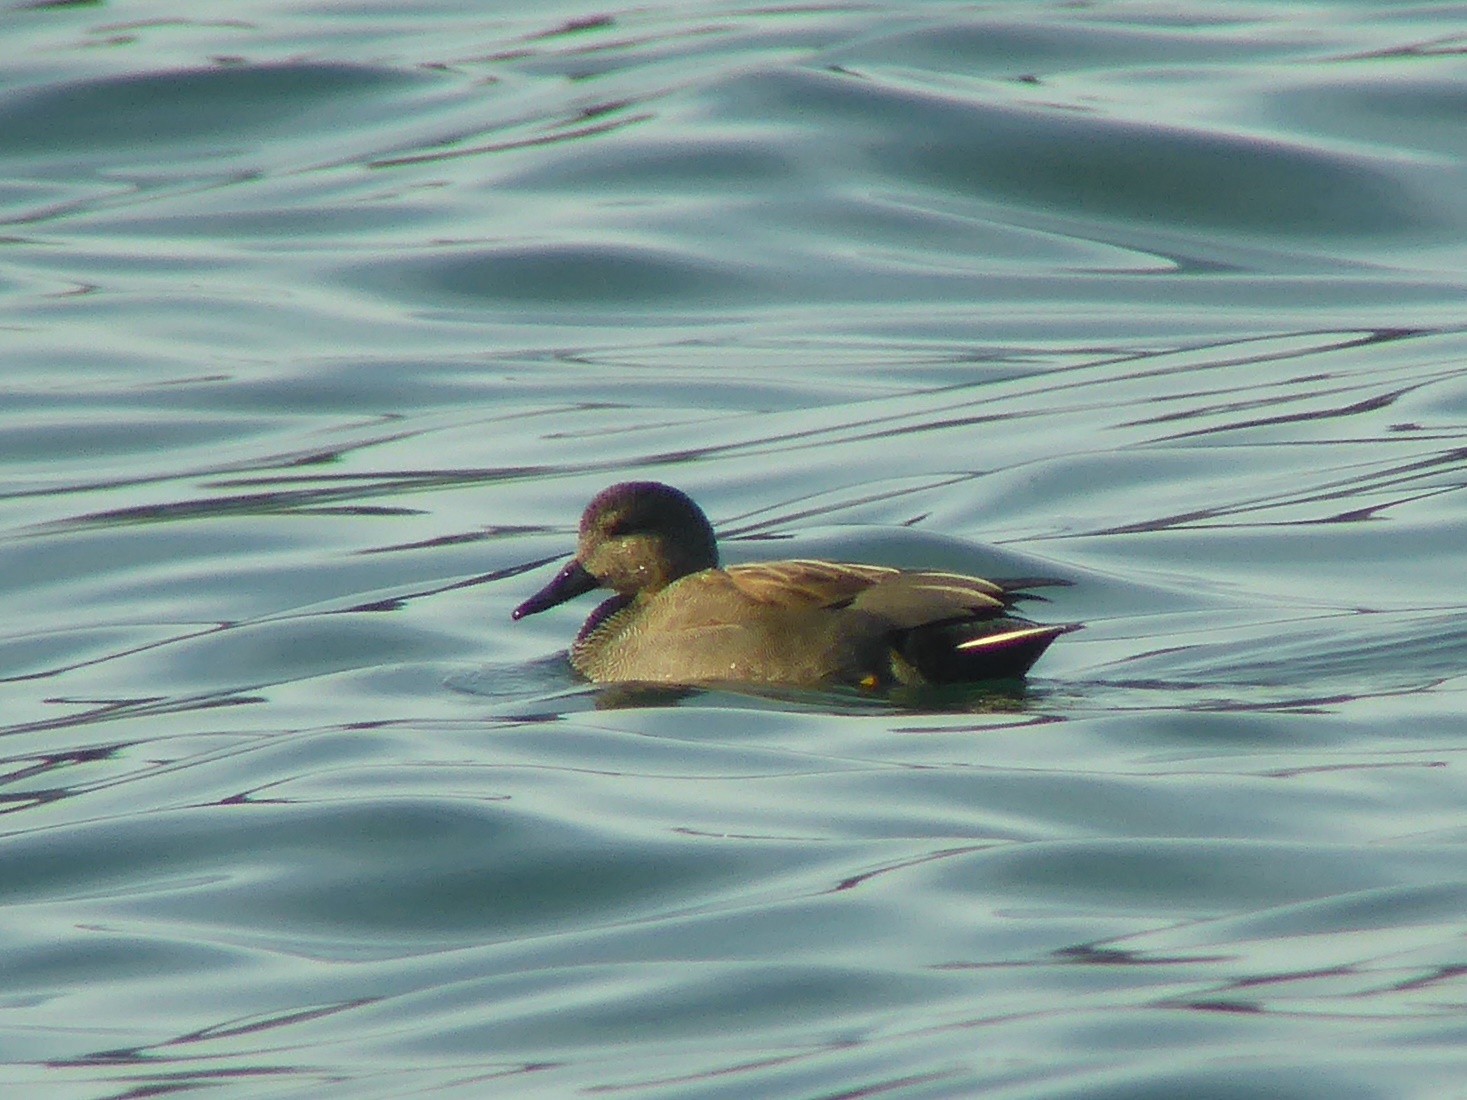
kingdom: Animalia
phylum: Chordata
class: Aves
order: Anseriformes
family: Anatidae
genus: Mareca
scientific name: Mareca strepera
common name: Gadwall
